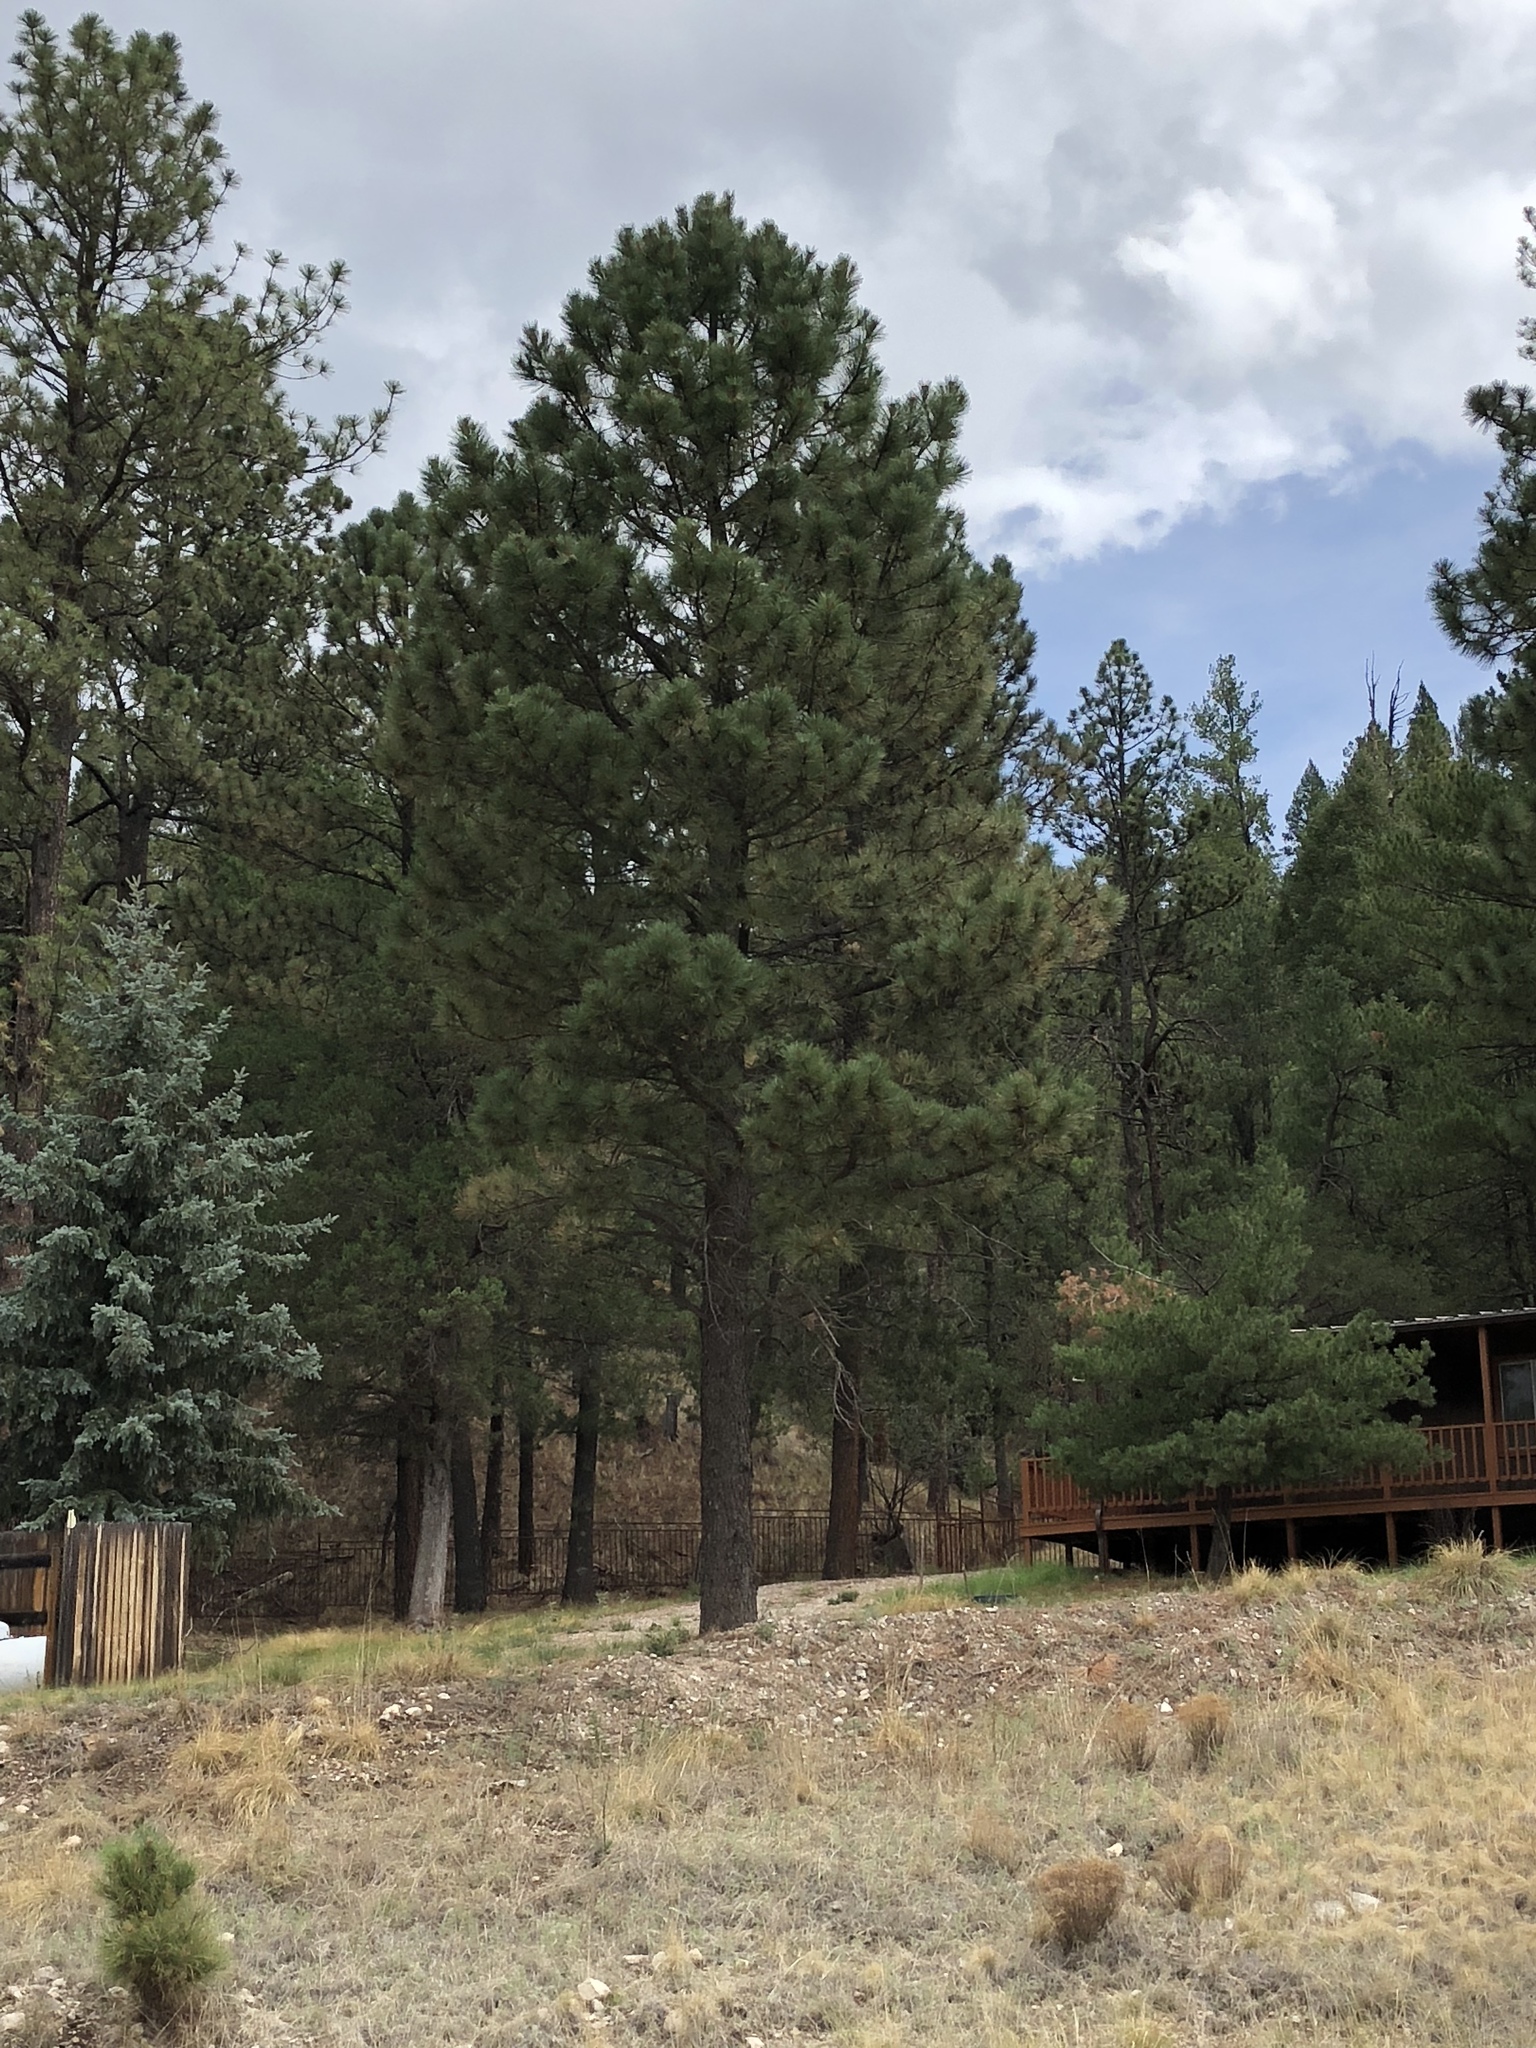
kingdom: Plantae
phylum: Tracheophyta
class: Pinopsida
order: Pinales
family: Pinaceae
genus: Pinus
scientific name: Pinus ponderosa
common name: Western yellow-pine
